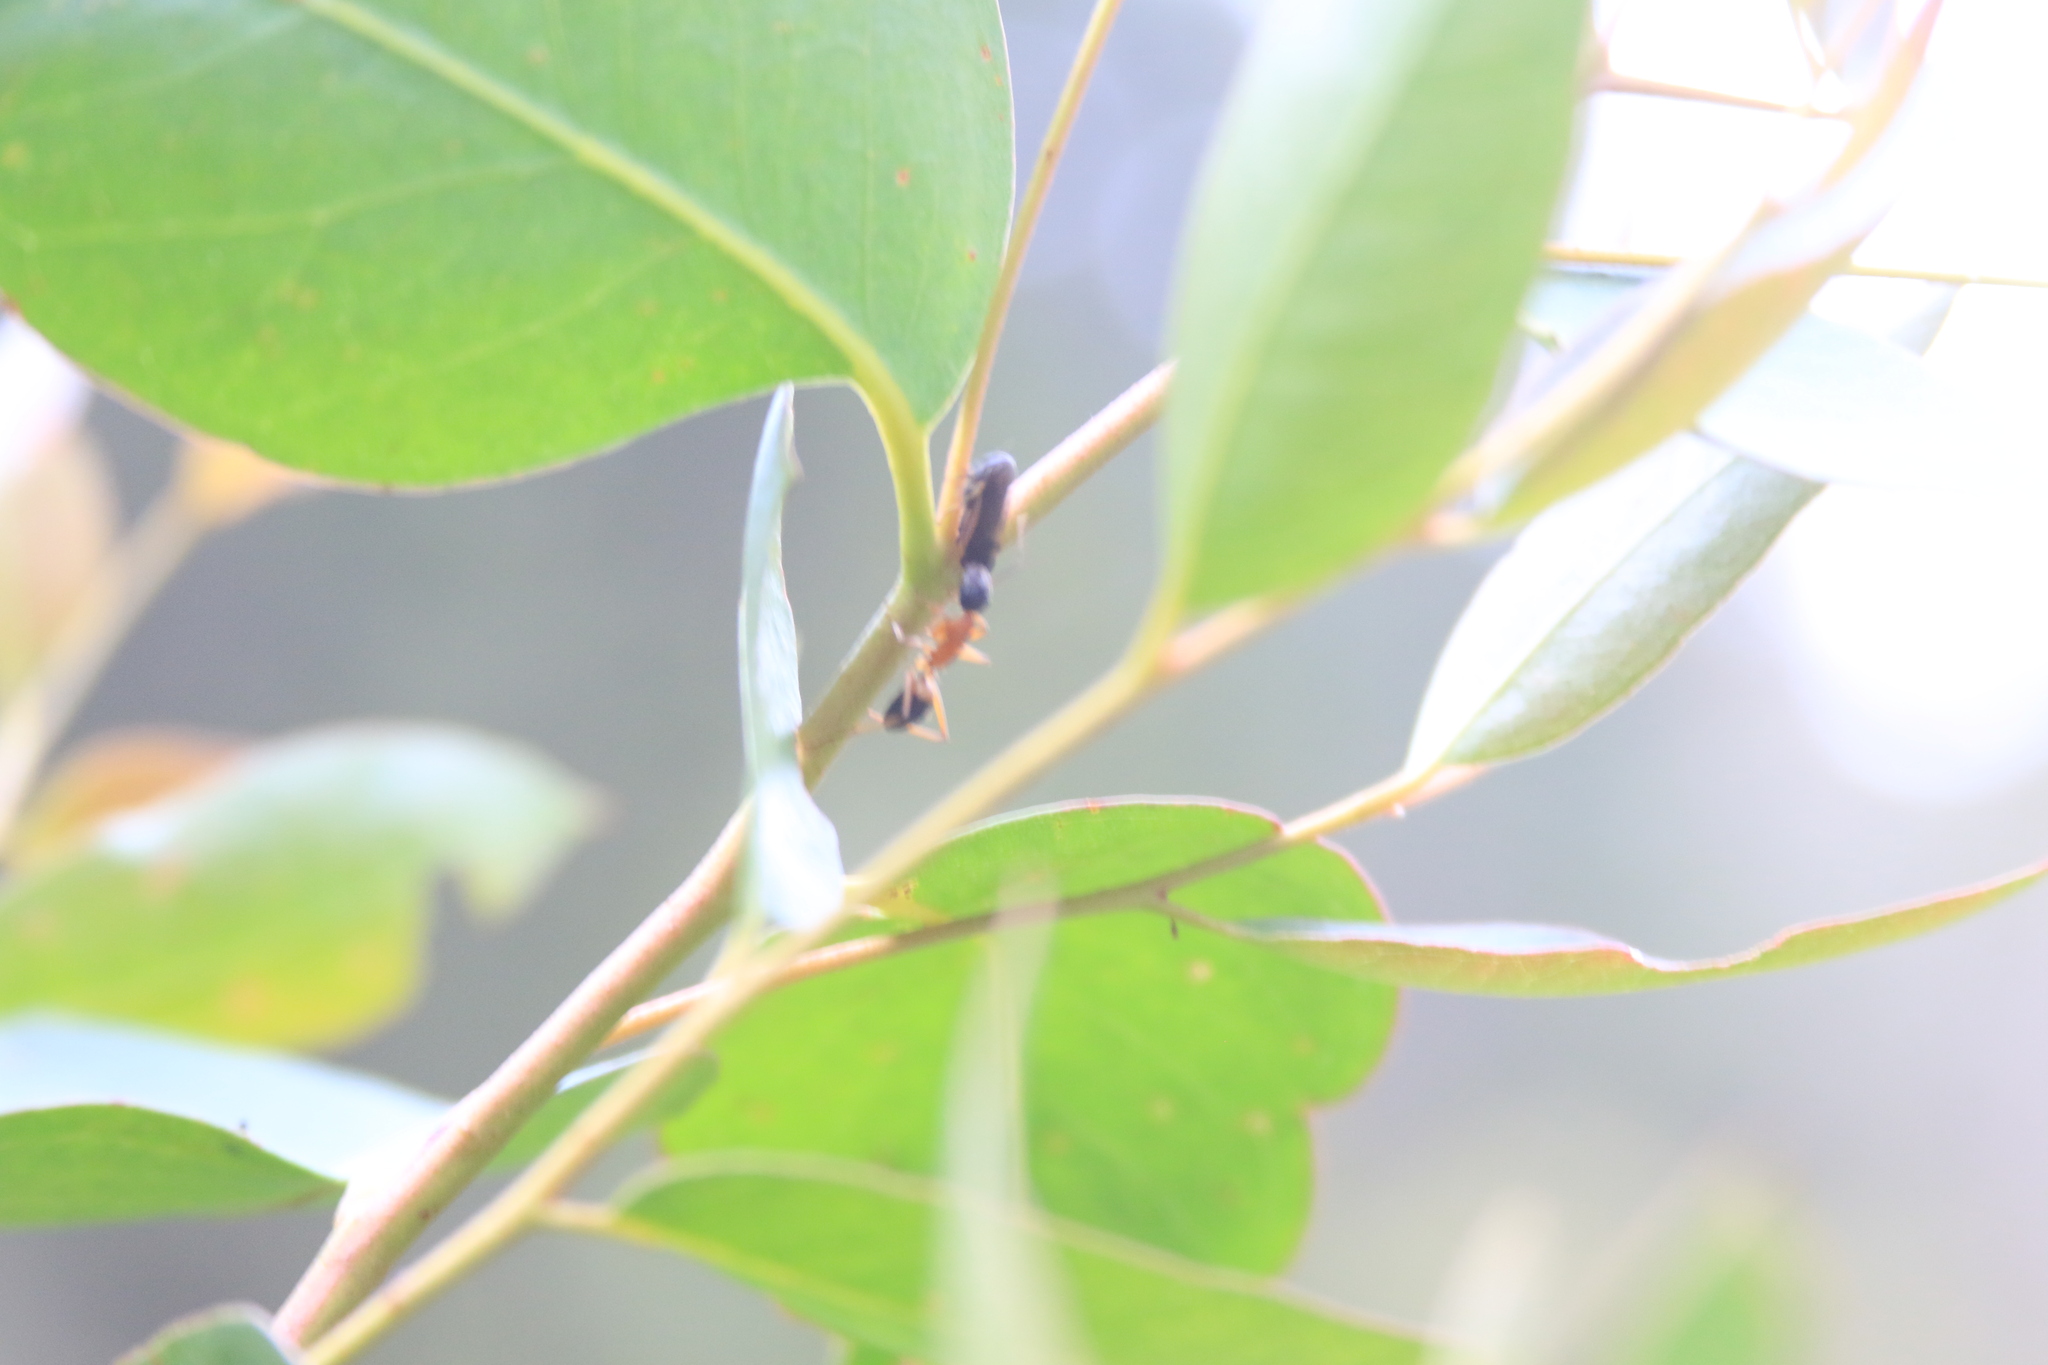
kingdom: Animalia
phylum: Arthropoda
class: Insecta
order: Hymenoptera
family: Formicidae
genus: Camponotus
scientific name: Camponotus consobrinus
